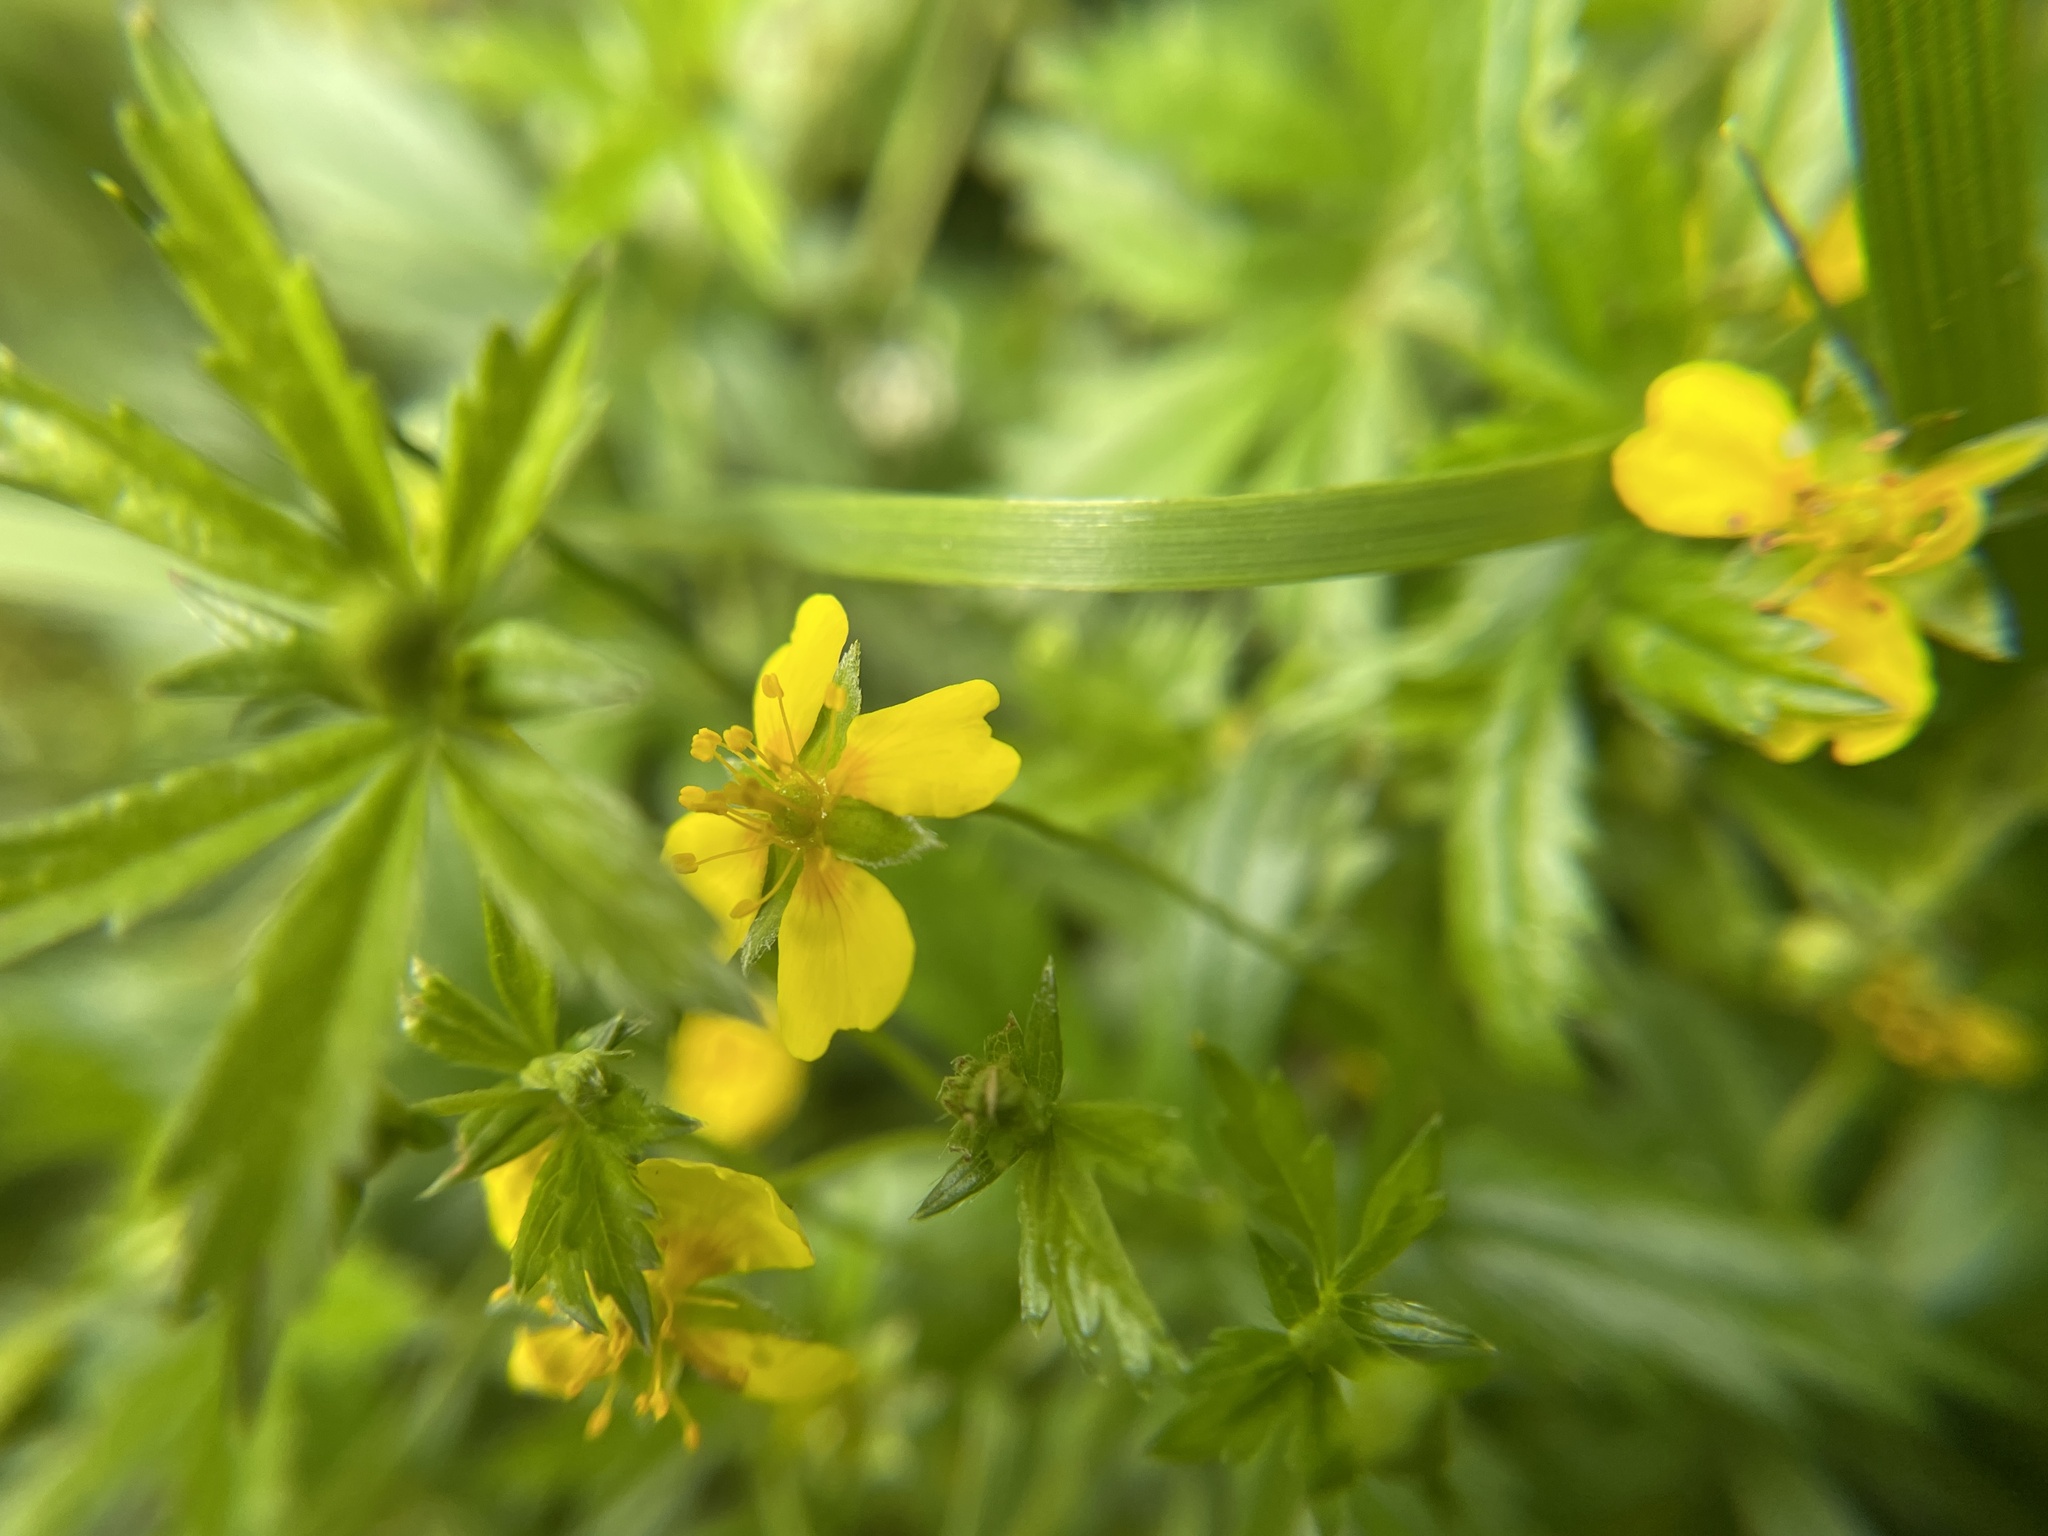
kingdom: Plantae
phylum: Tracheophyta
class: Magnoliopsida
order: Rosales
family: Rosaceae
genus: Potentilla
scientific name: Potentilla erecta
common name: Tormentil
